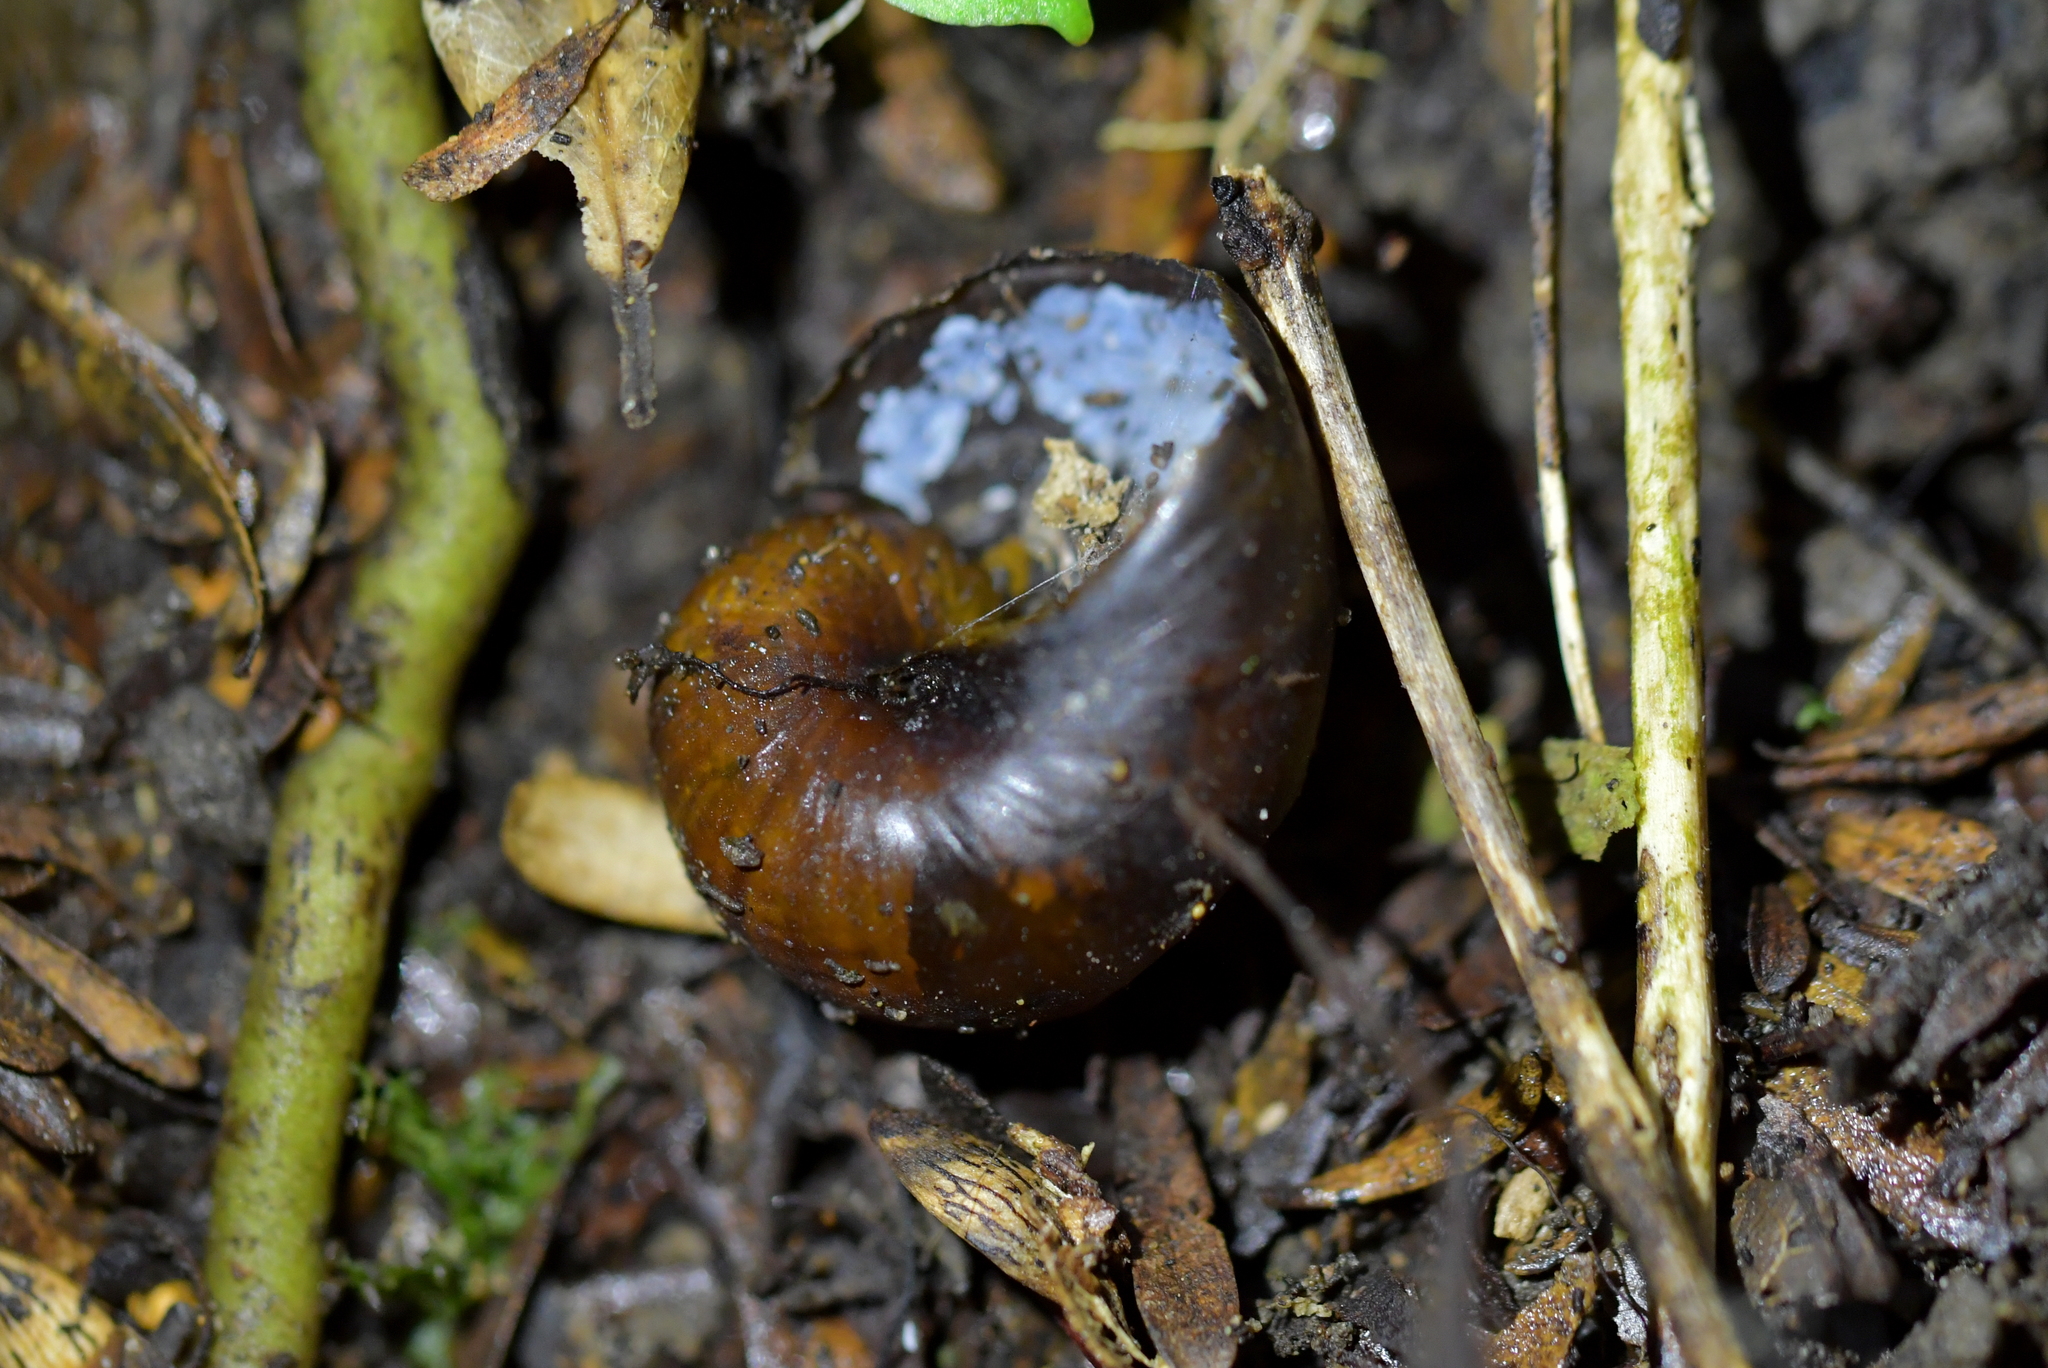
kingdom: Animalia
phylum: Mollusca
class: Gastropoda
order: Stylommatophora
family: Rhytididae
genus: Wainuia
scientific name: Wainuia urnula
